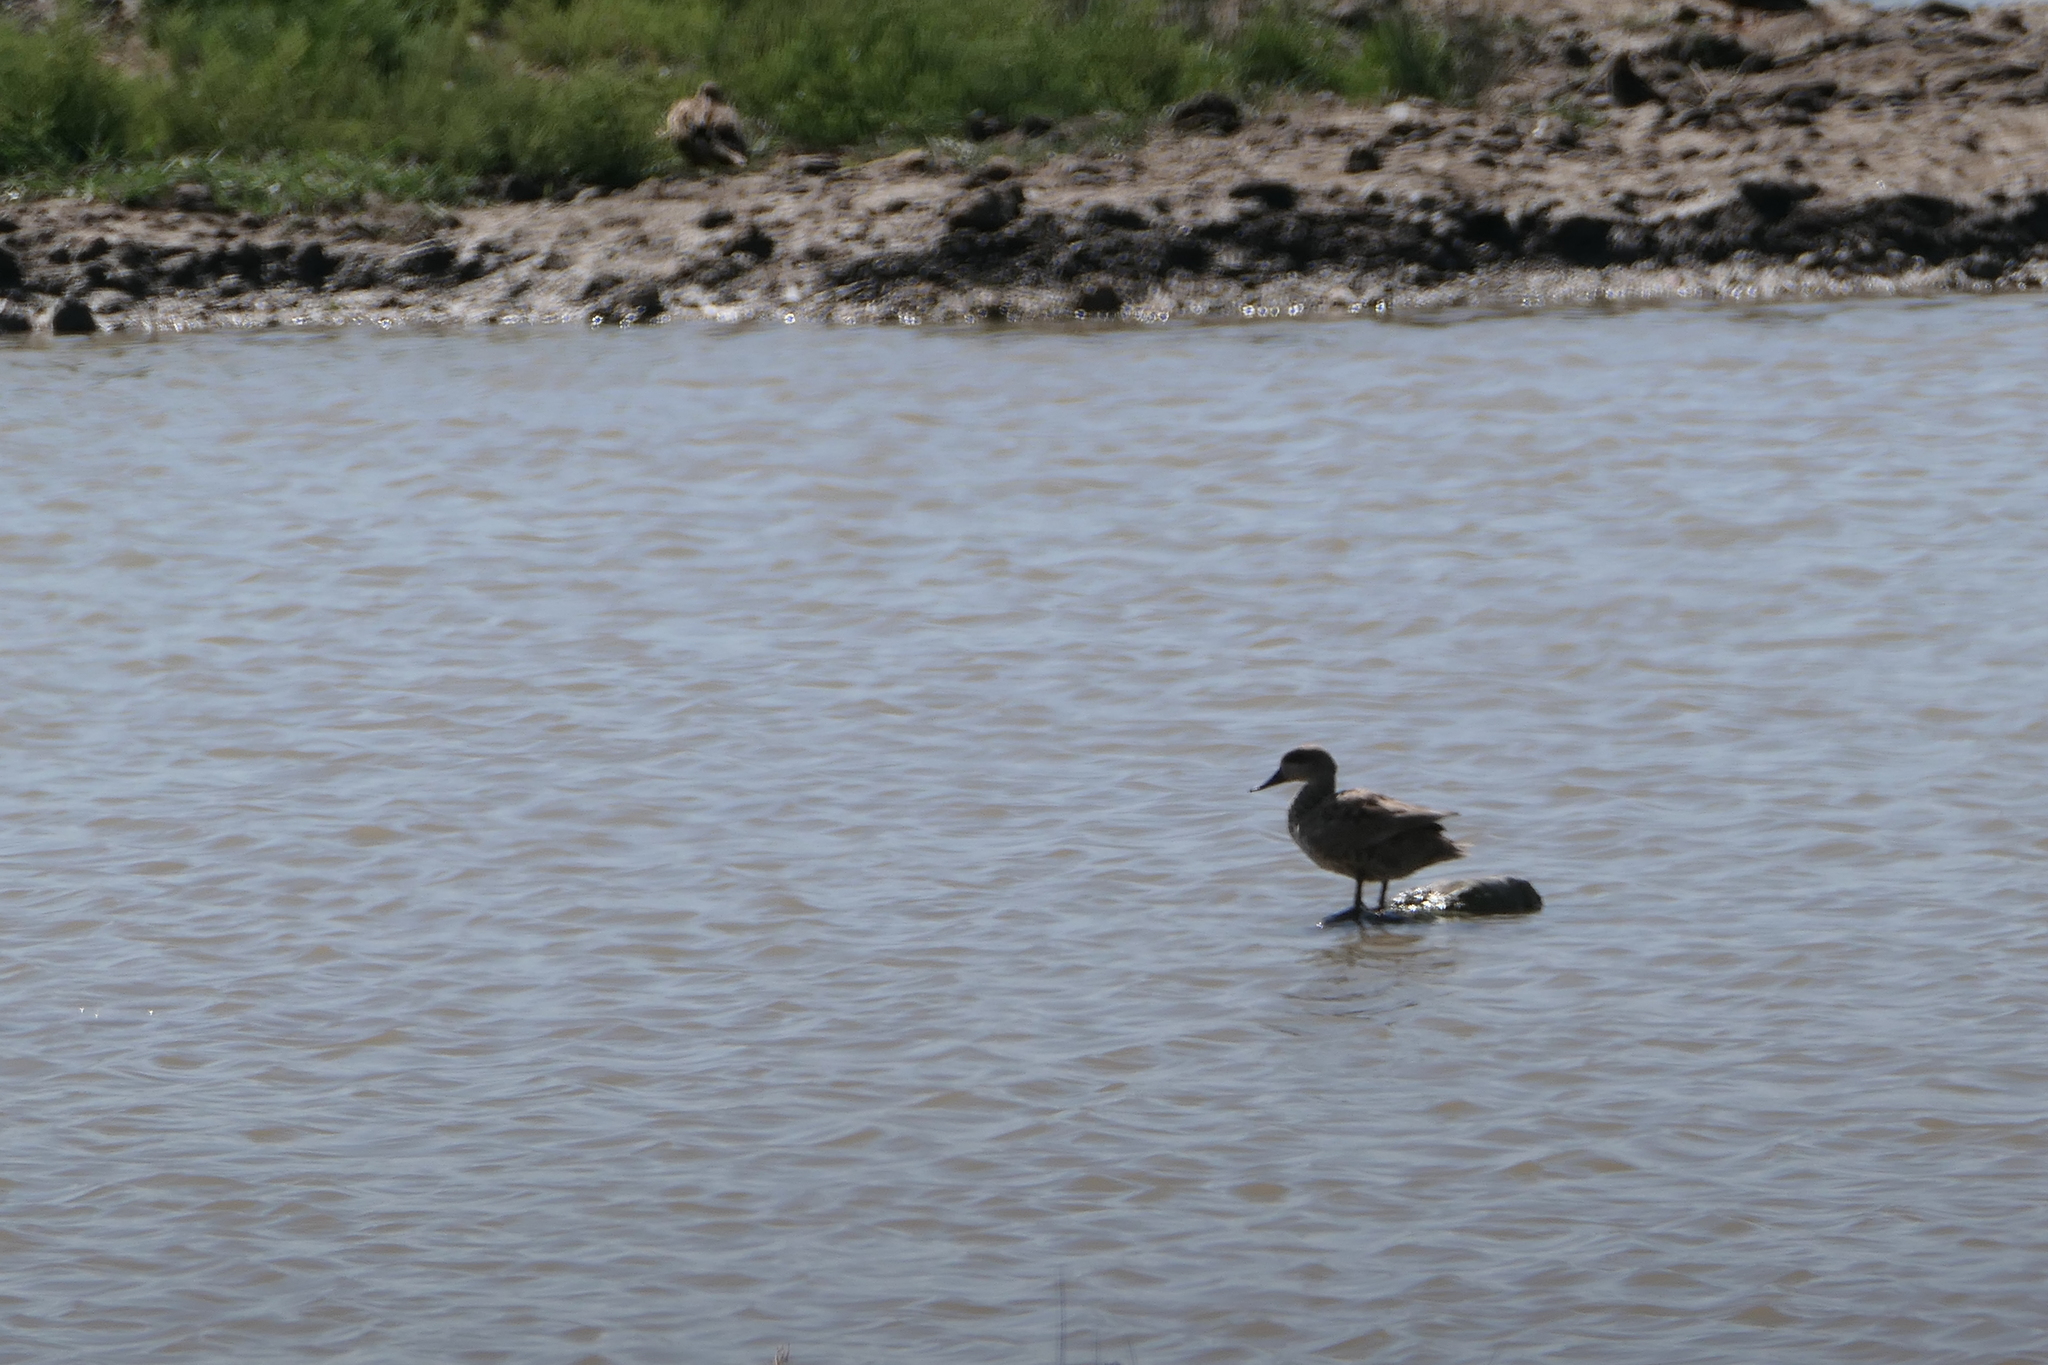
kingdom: Animalia
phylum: Chordata
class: Aves
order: Anseriformes
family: Anatidae
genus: Marmaronetta
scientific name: Marmaronetta angustirostris
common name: Marbled duck
